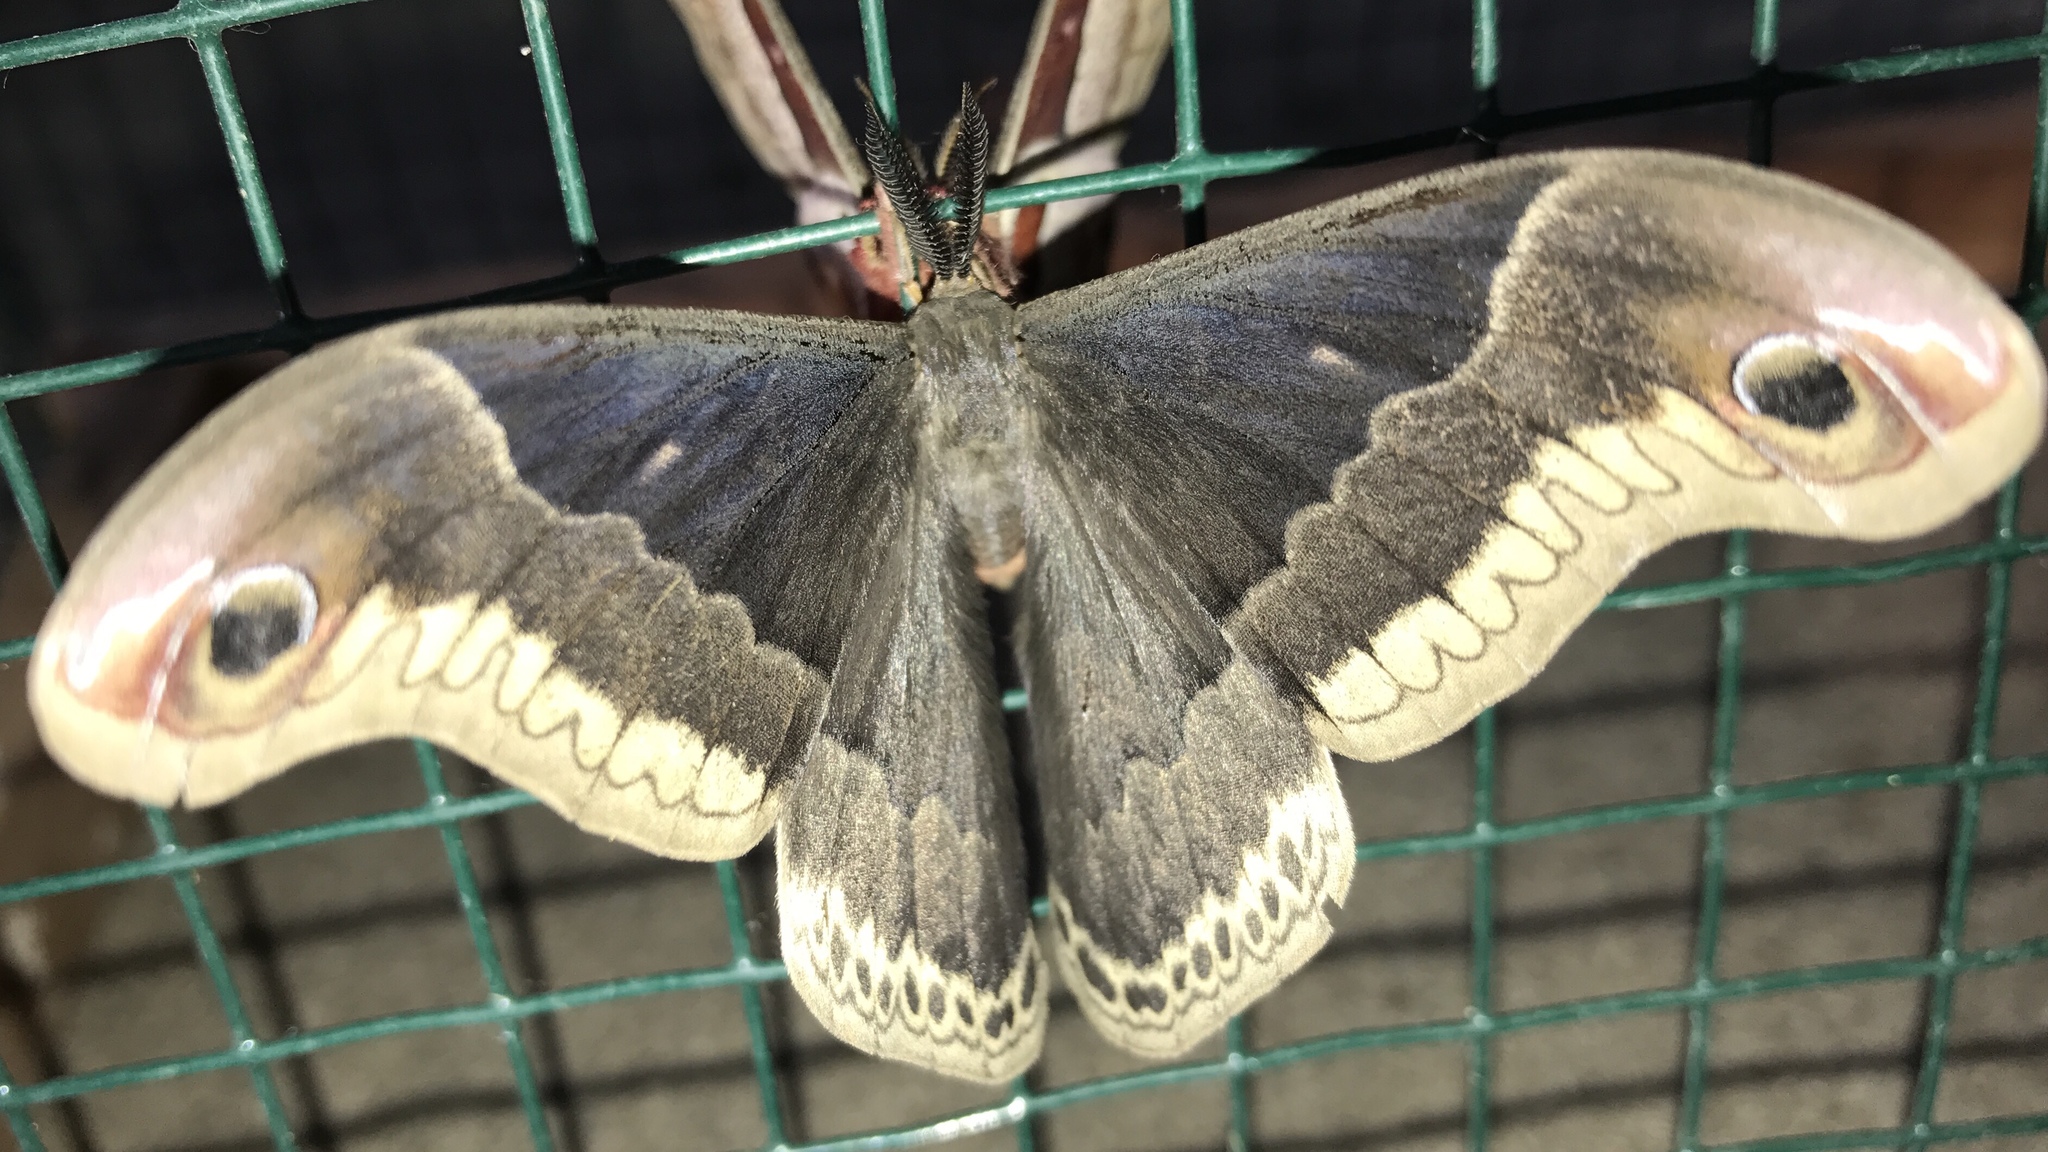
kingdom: Animalia
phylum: Arthropoda
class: Insecta
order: Lepidoptera
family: Saturniidae
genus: Callosamia
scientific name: Callosamia promethea
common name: Promethea silkmoth
